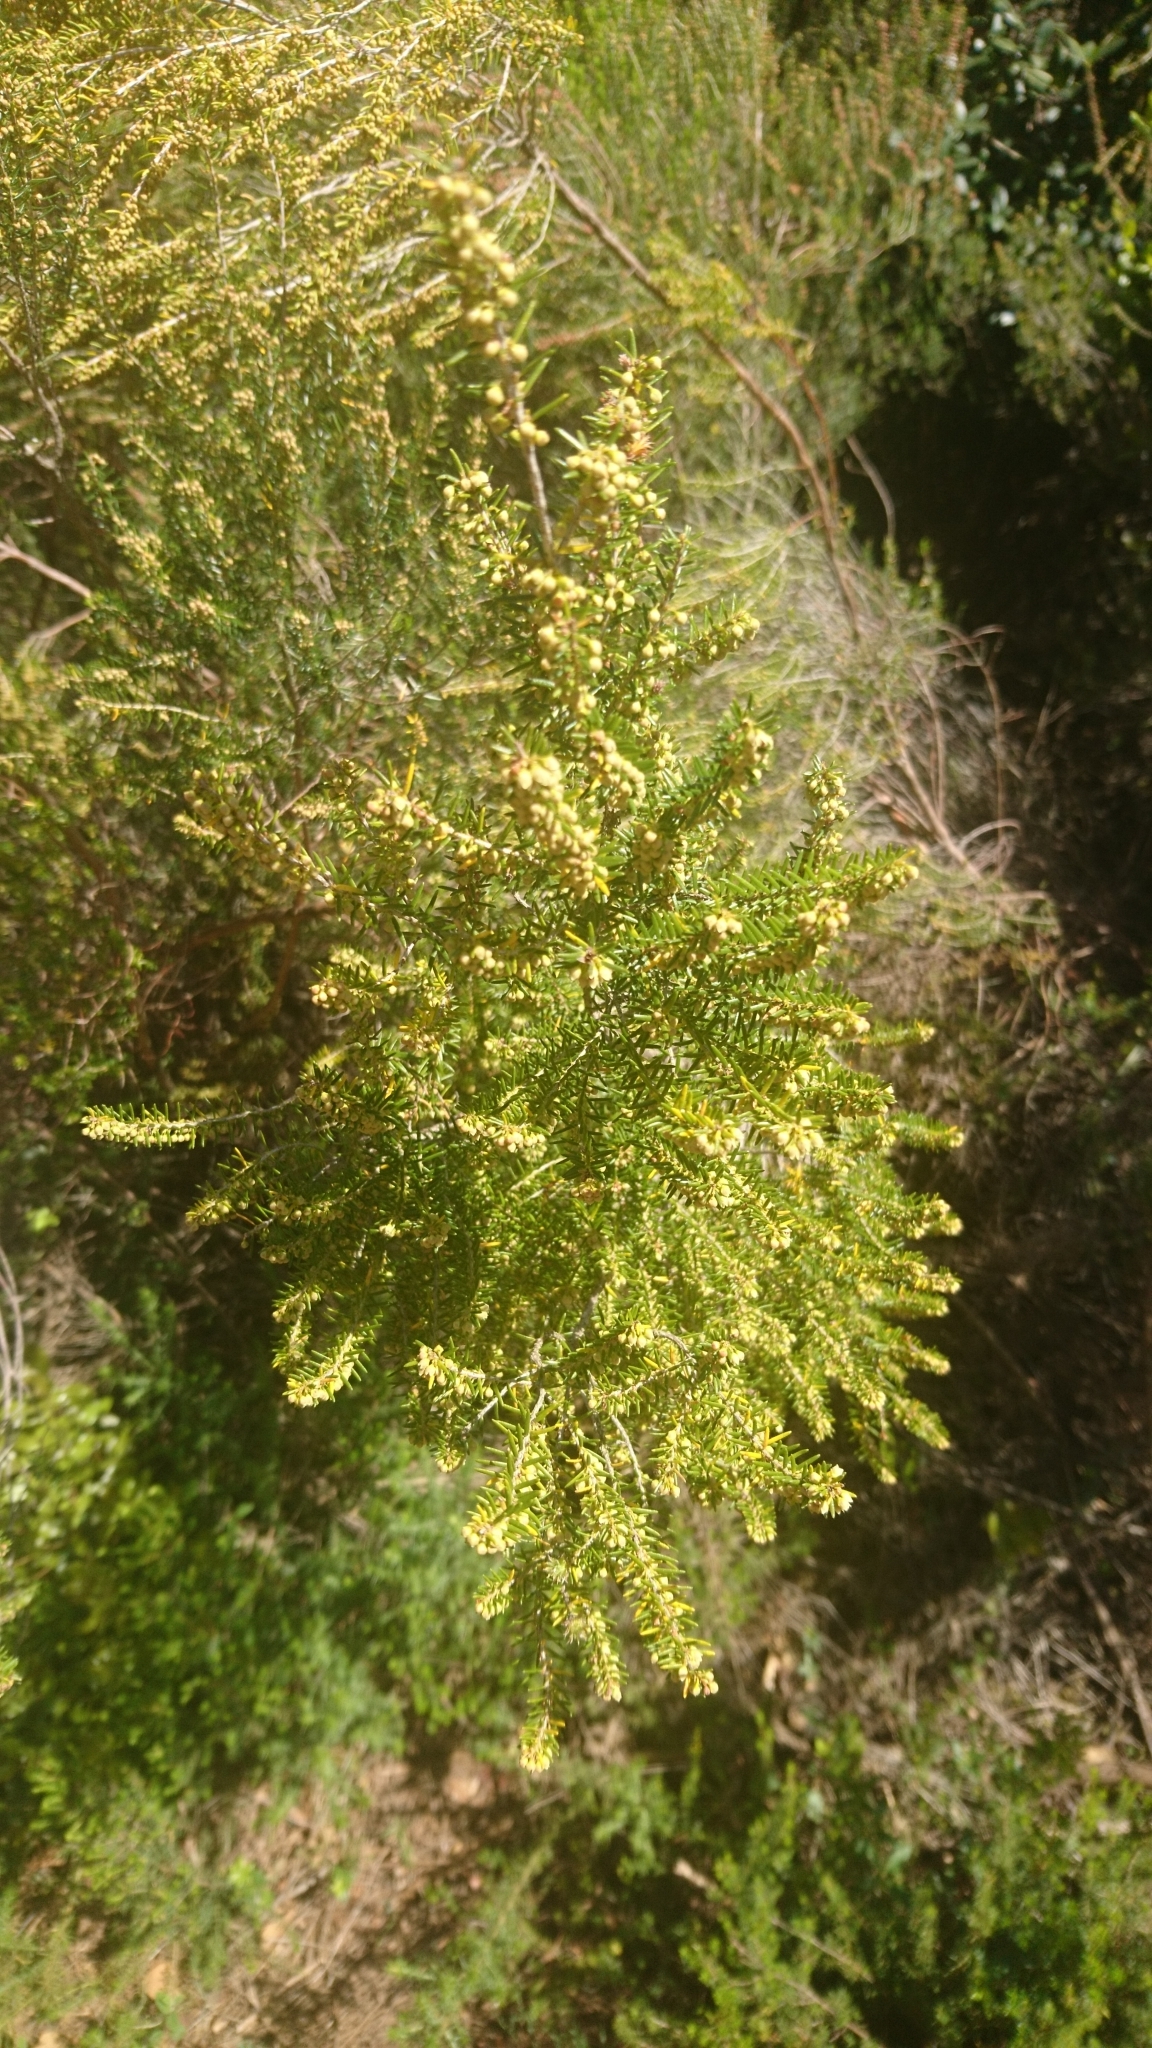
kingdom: Plantae
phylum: Tracheophyta
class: Magnoliopsida
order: Ericales
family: Ericaceae
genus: Erica
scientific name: Erica scoparia
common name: Green heather
